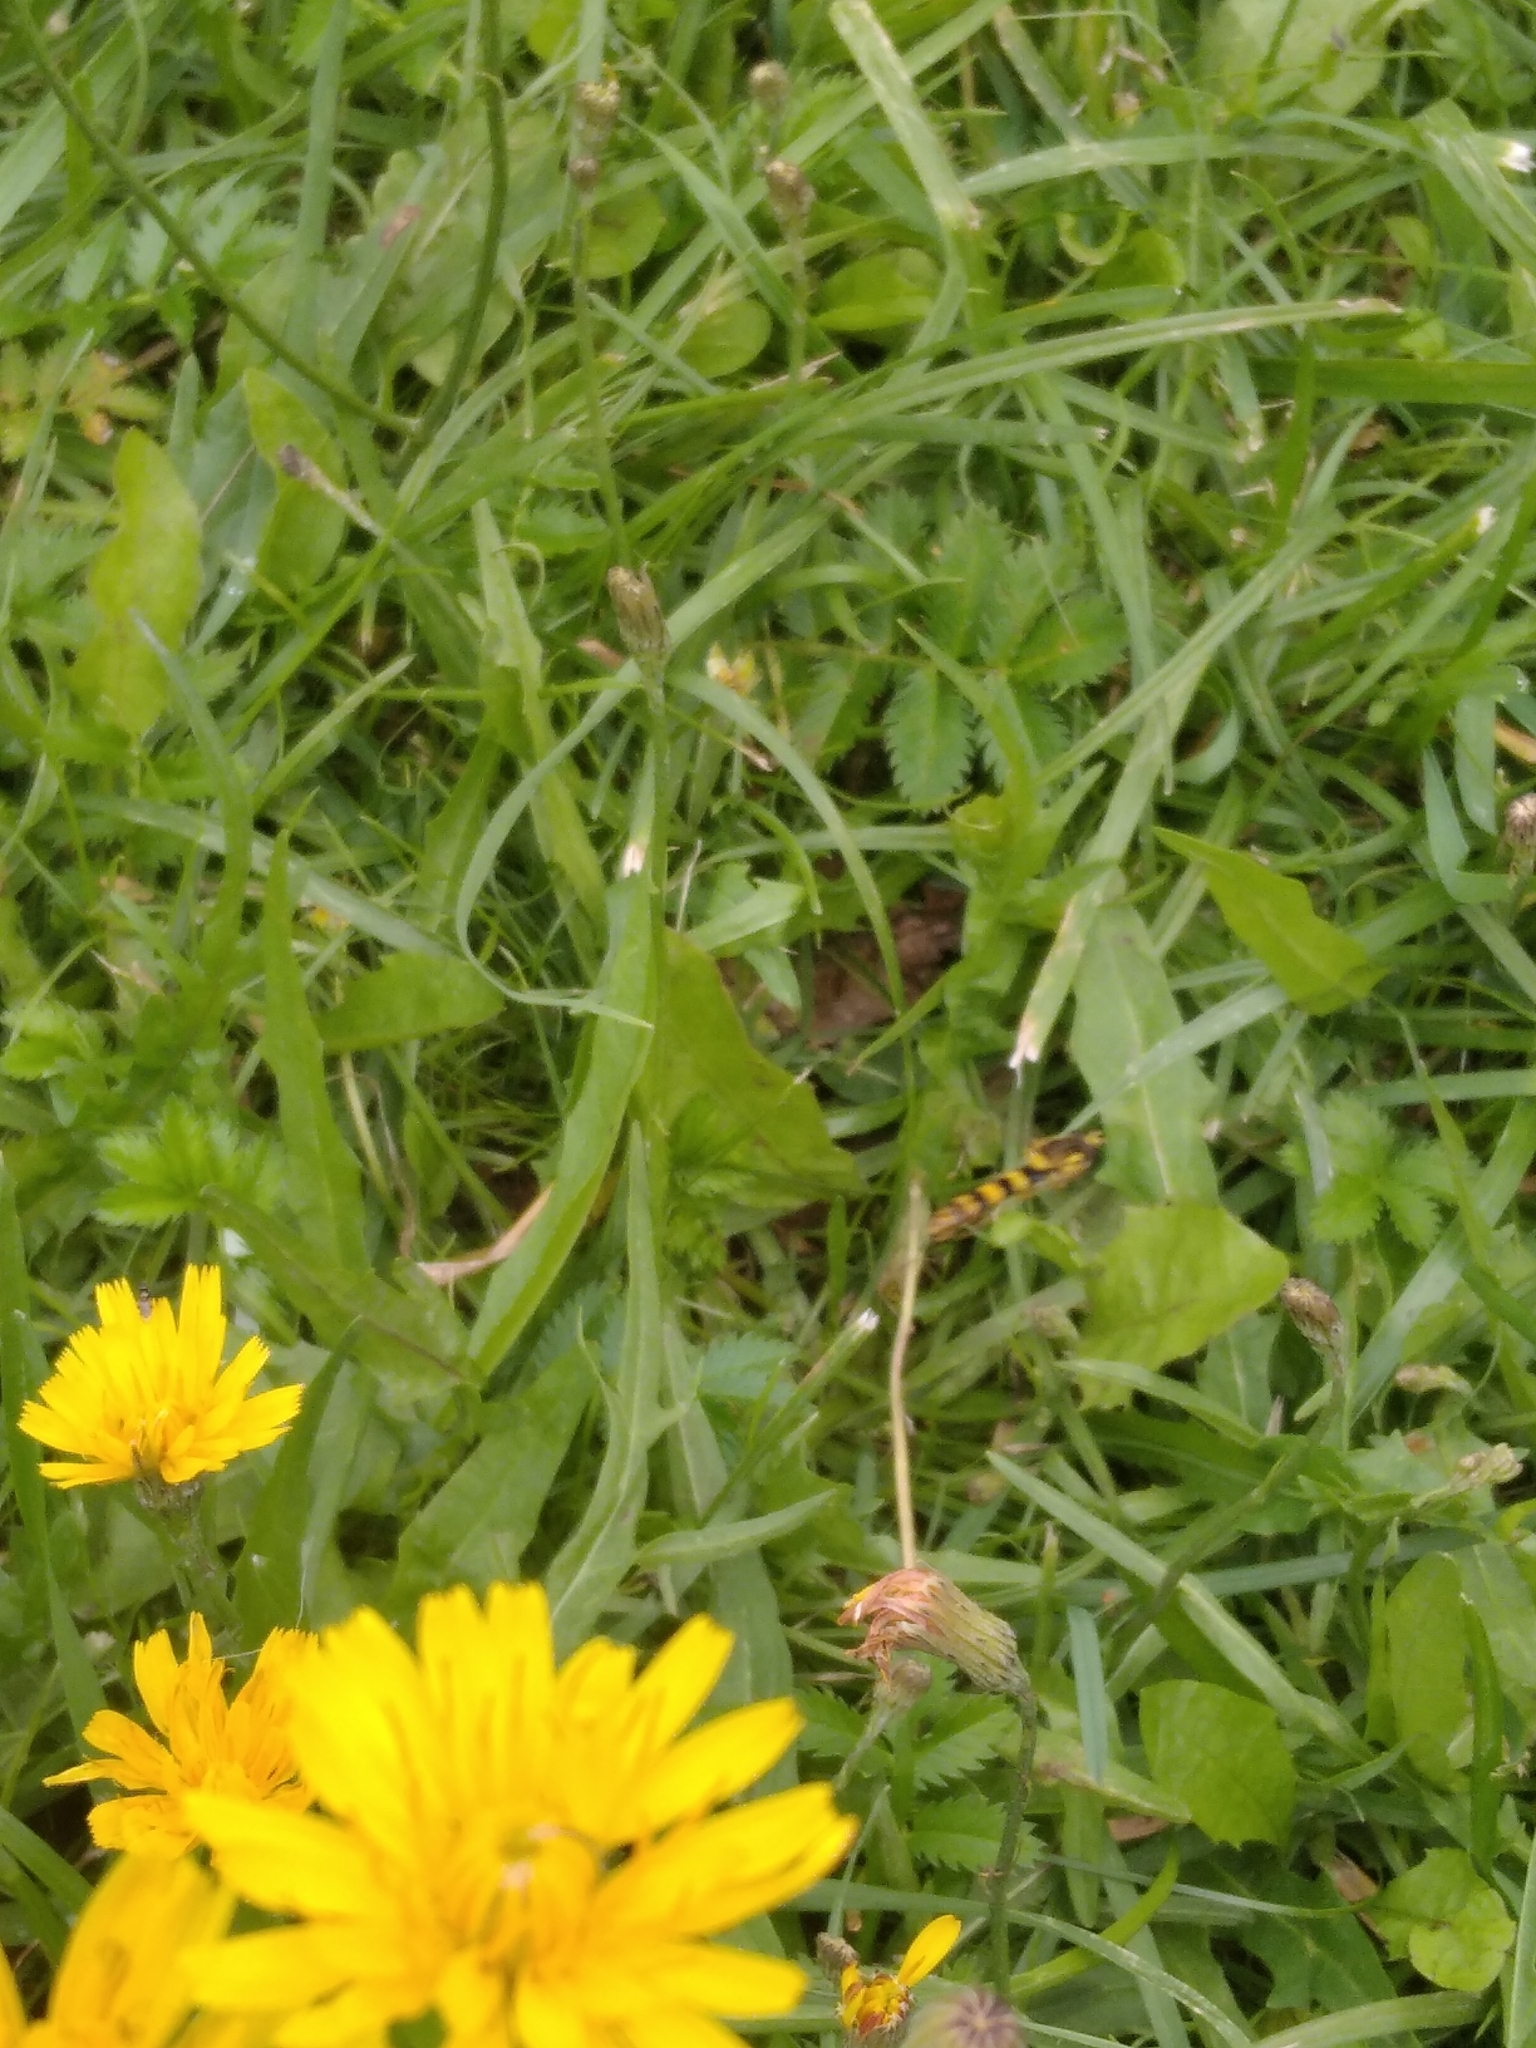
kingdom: Animalia
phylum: Arthropoda
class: Insecta
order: Diptera
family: Syrphidae
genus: Sphaerophoria
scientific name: Sphaerophoria scripta
